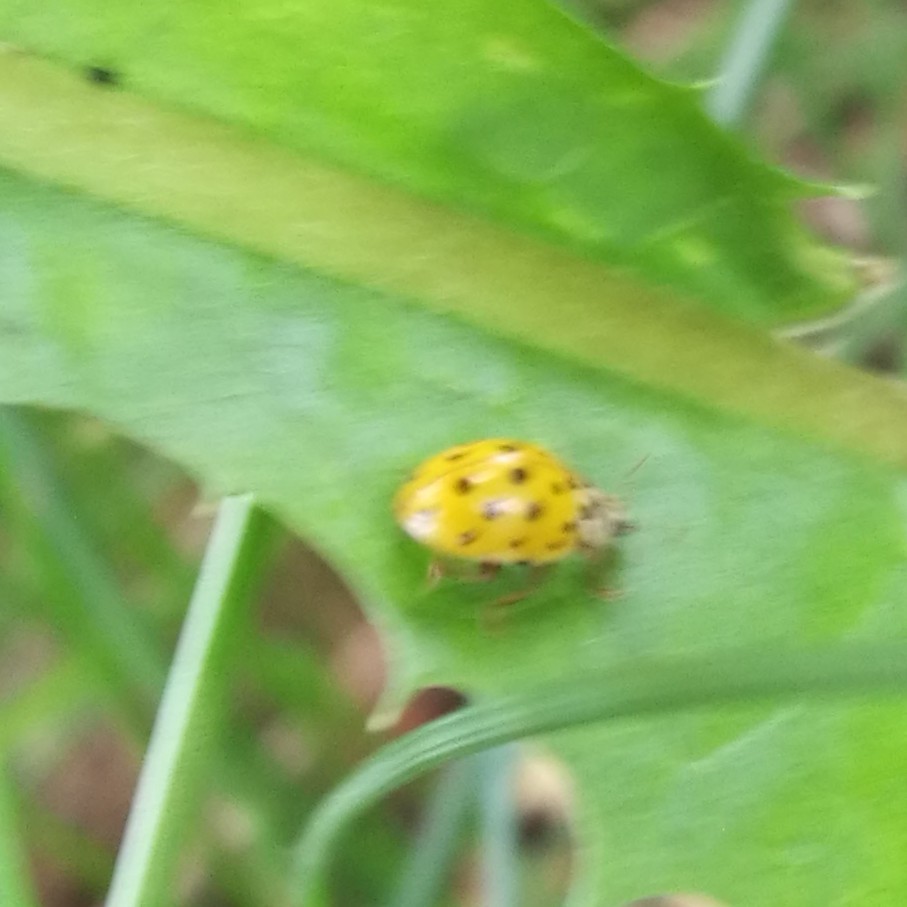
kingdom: Animalia
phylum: Arthropoda
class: Insecta
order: Coleoptera
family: Coccinellidae
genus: Psyllobora
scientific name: Psyllobora vigintiduopunctata
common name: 22-spot ladybird
